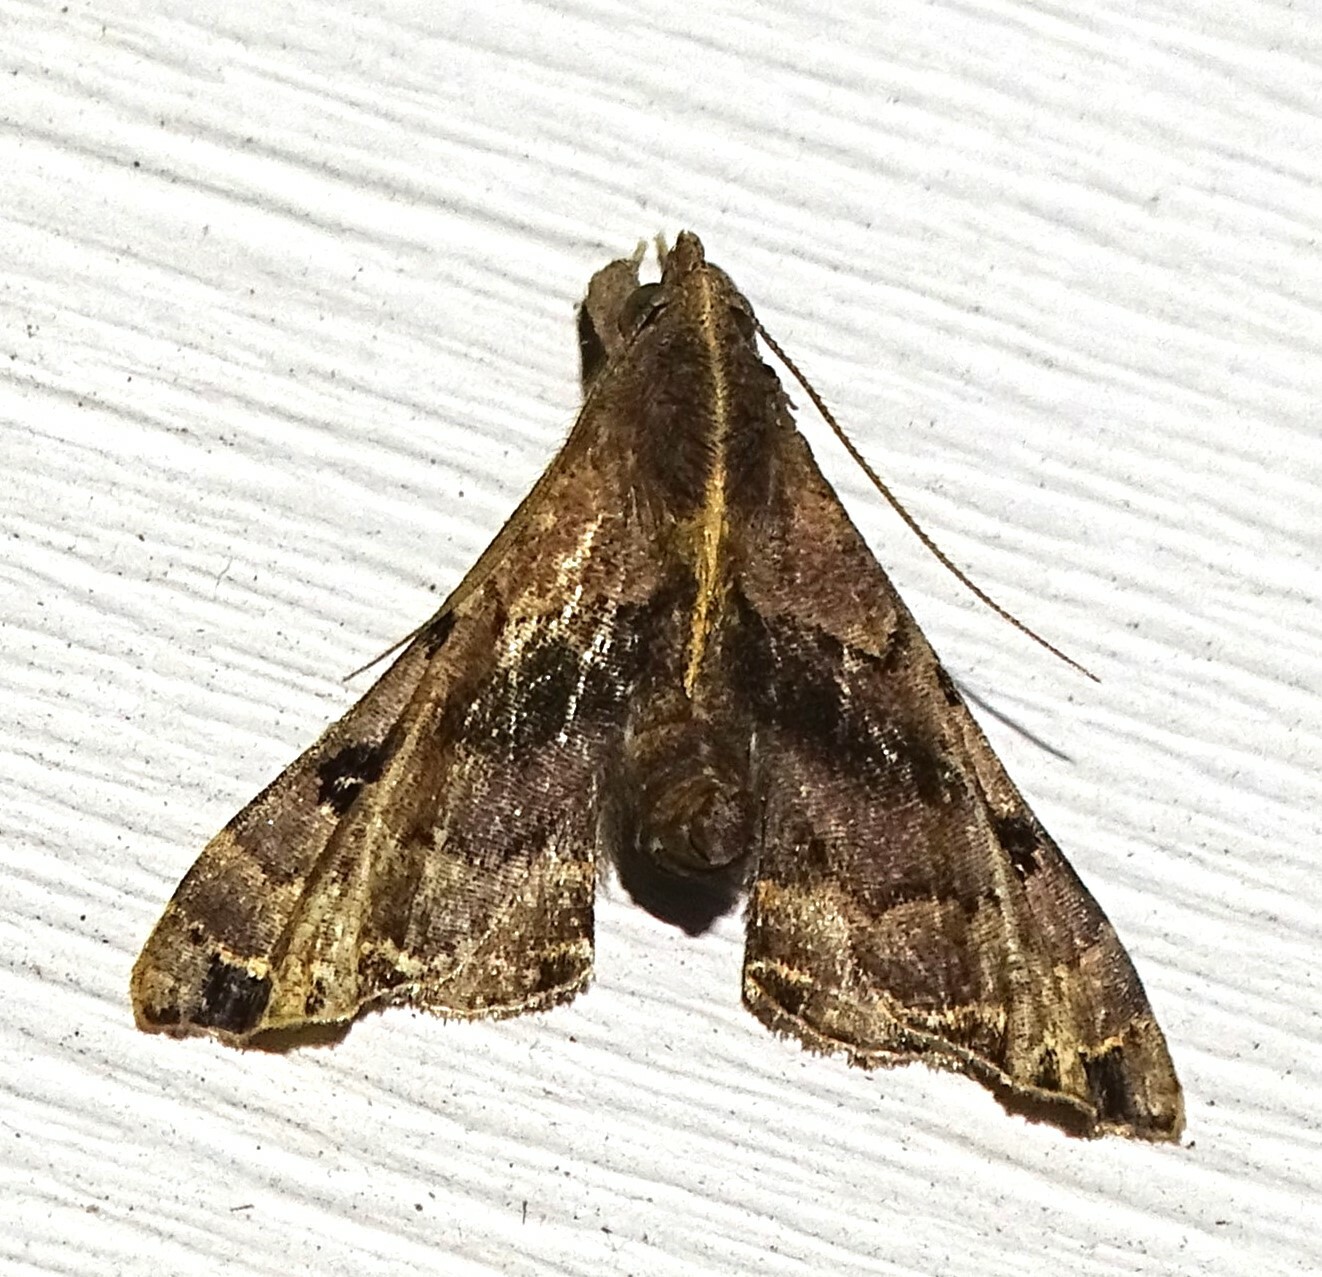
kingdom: Animalia
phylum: Arthropoda
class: Insecta
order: Lepidoptera
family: Erebidae
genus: Palthis
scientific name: Palthis asopialis
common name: Faint-spotted palthis moth
